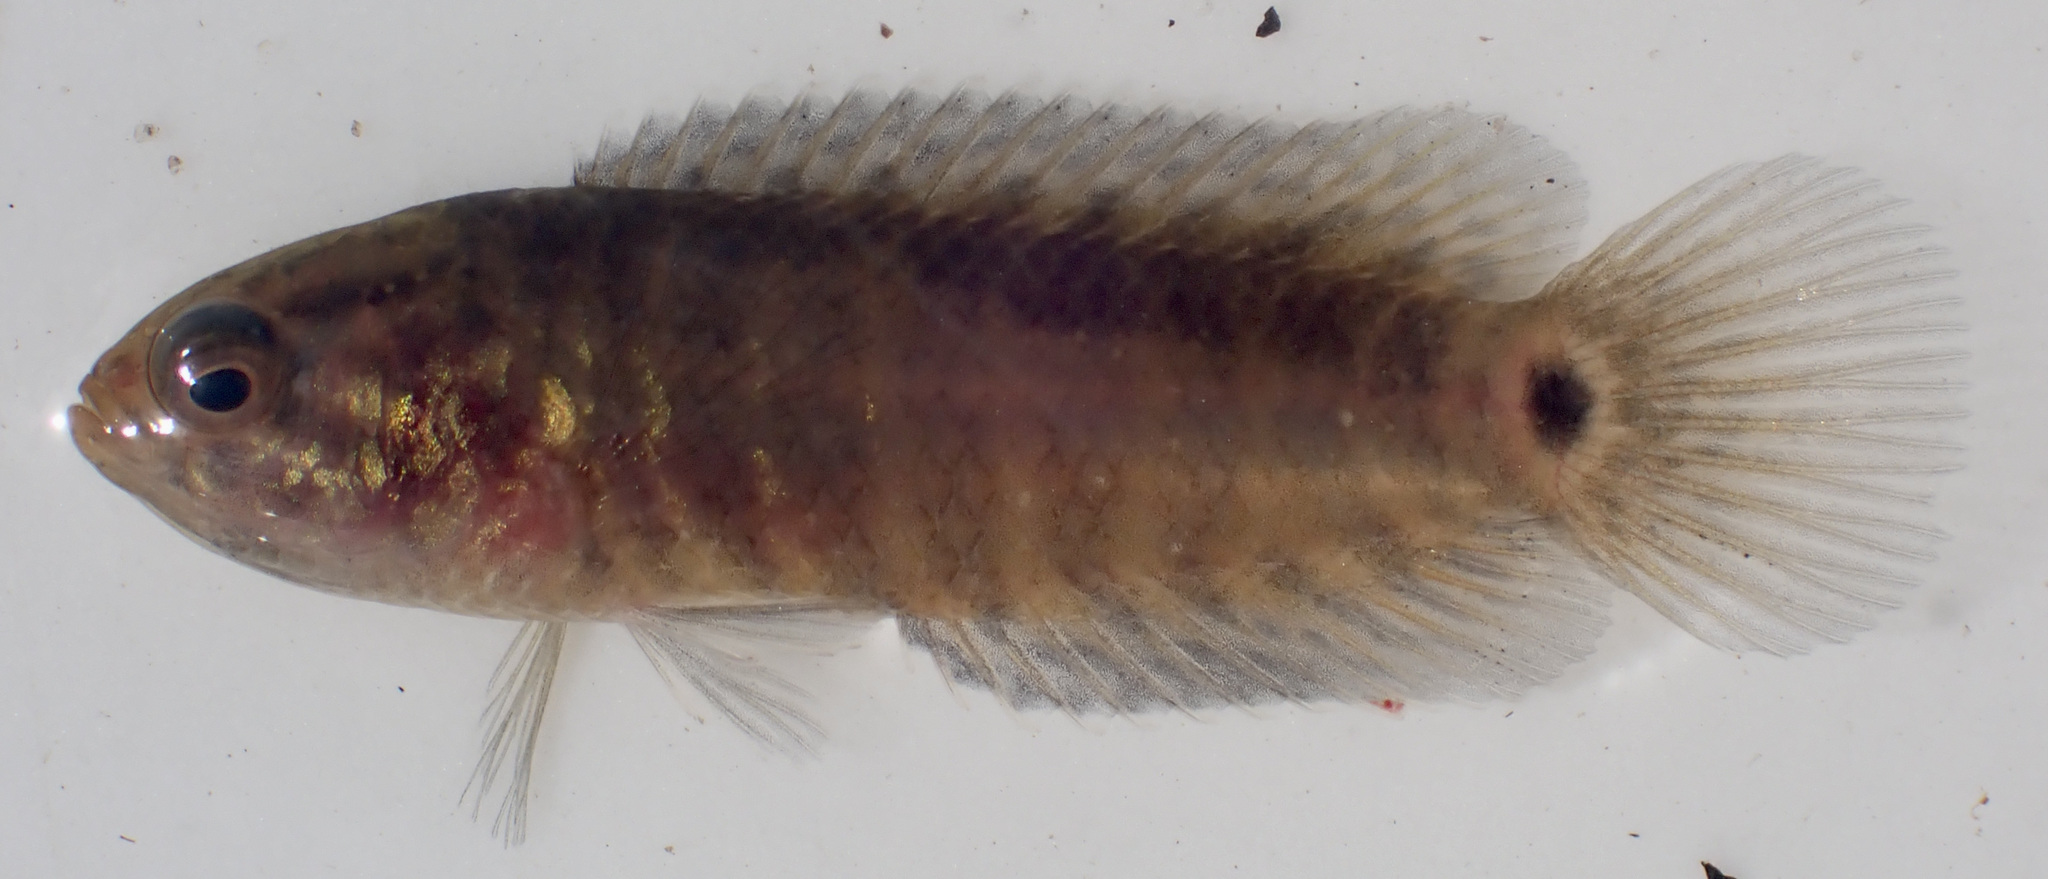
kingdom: Animalia
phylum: Chordata
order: Perciformes
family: Anabantidae
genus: Microctenopoma
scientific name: Microctenopoma intermedium
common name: Blackspot climbing perch
